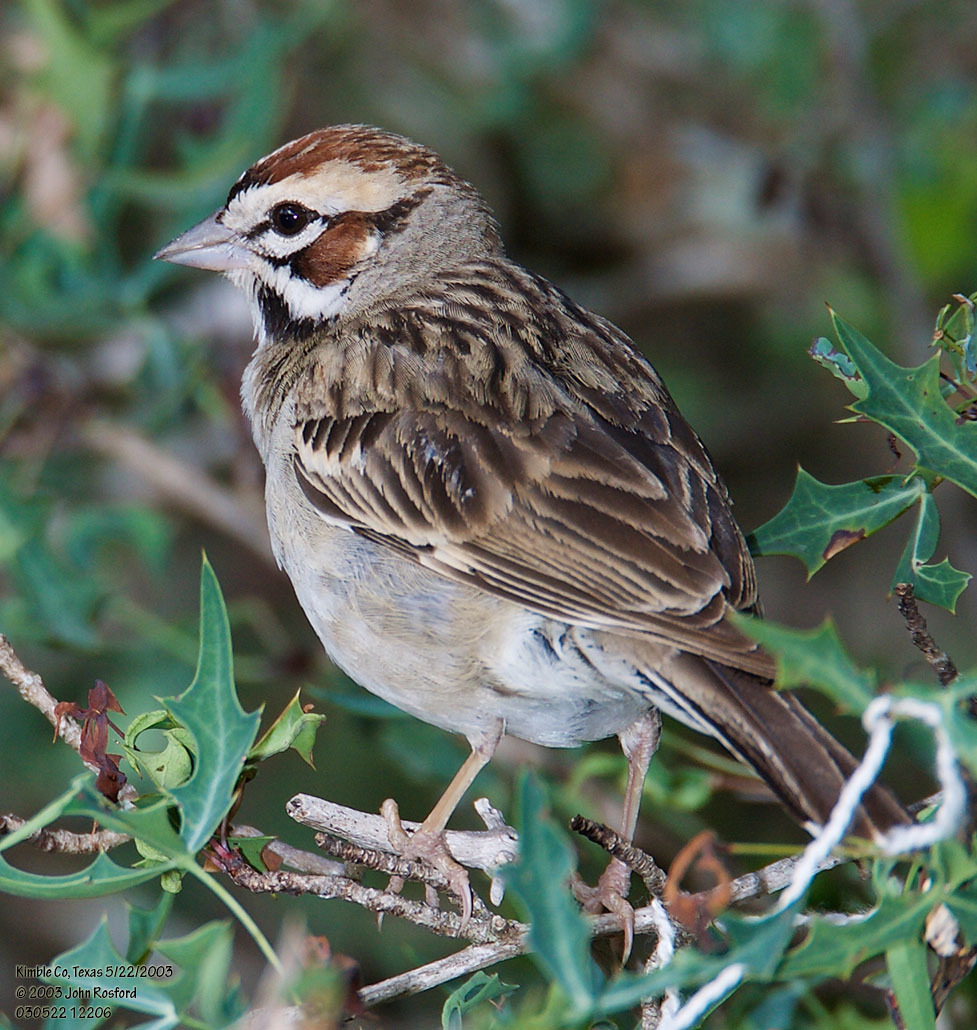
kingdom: Animalia
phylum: Chordata
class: Aves
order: Passeriformes
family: Passerellidae
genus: Chondestes
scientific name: Chondestes grammacus
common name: Lark sparrow
